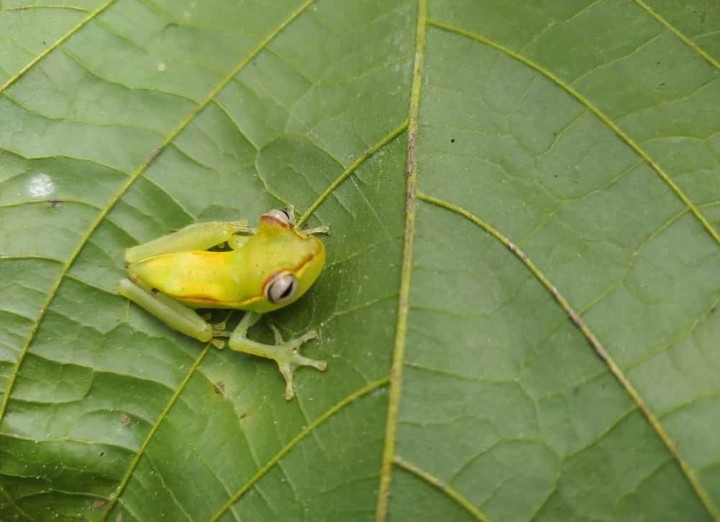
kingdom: Animalia
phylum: Chordata
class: Amphibia
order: Anura
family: Hylidae
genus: Boana
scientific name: Boana pellucens
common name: Palmar treefrog
